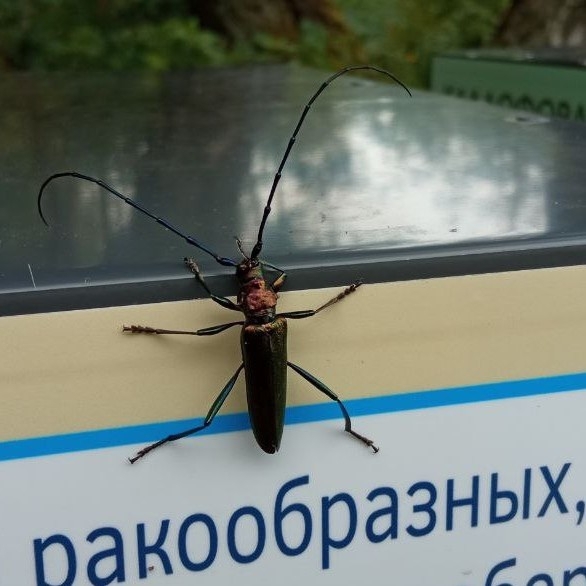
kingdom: Animalia
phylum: Arthropoda
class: Insecta
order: Coleoptera
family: Cerambycidae
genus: Aromia
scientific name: Aromia moschata
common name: Musk beetle
